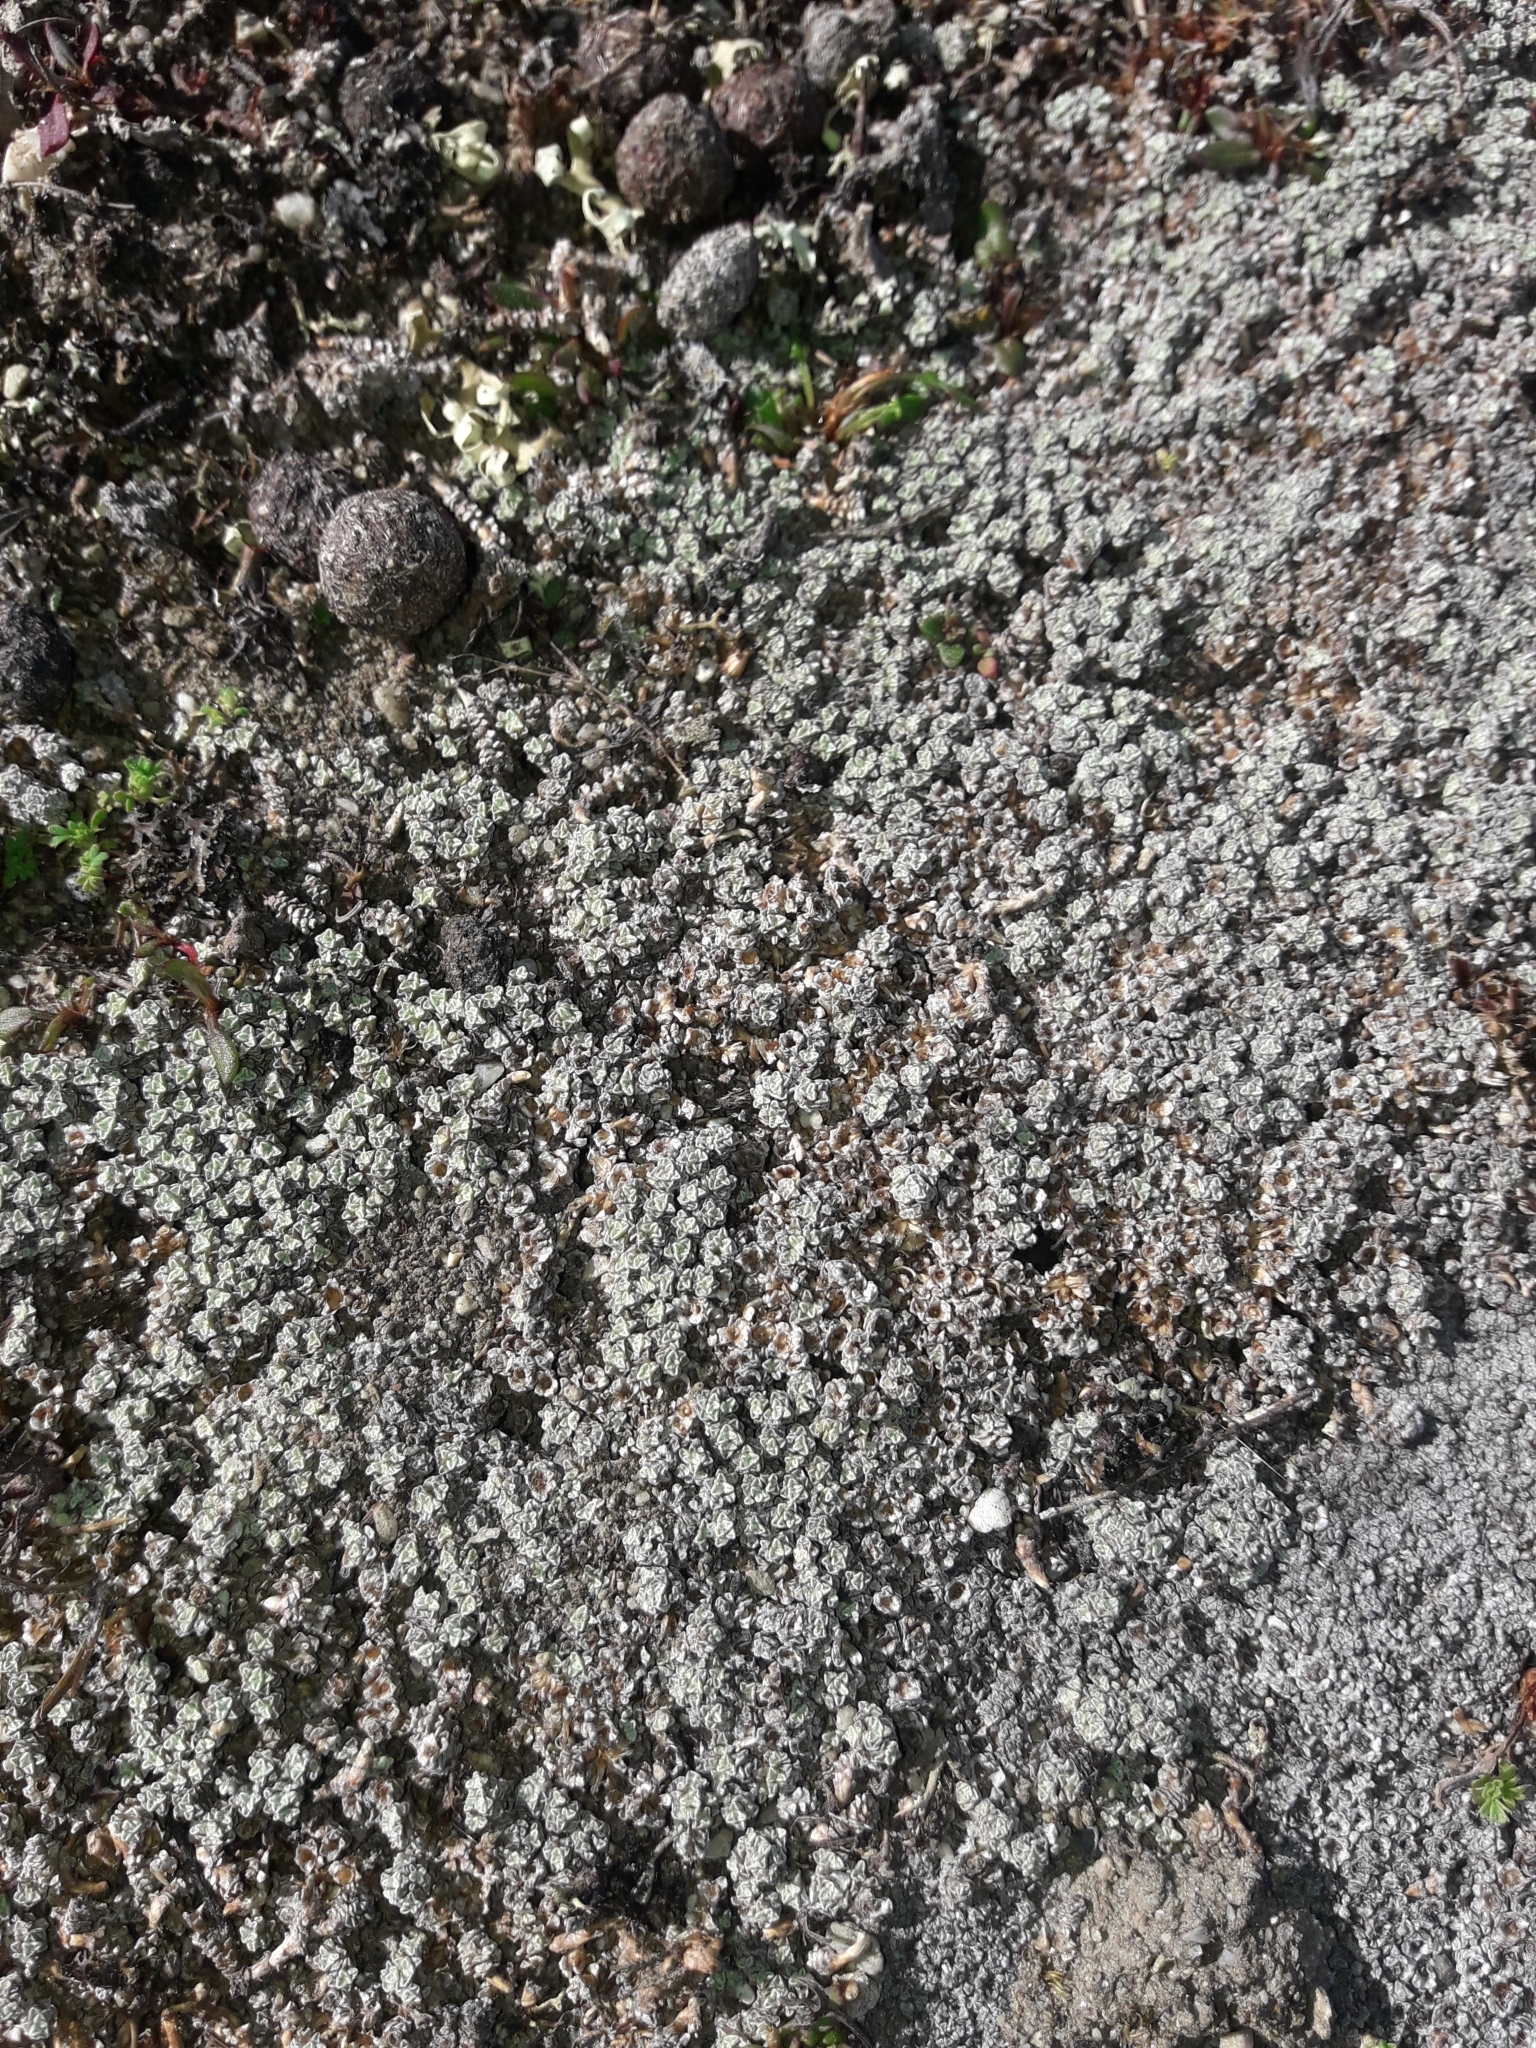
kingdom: Plantae
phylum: Tracheophyta
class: Magnoliopsida
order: Asterales
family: Asteraceae
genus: Raoulia
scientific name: Raoulia australis
